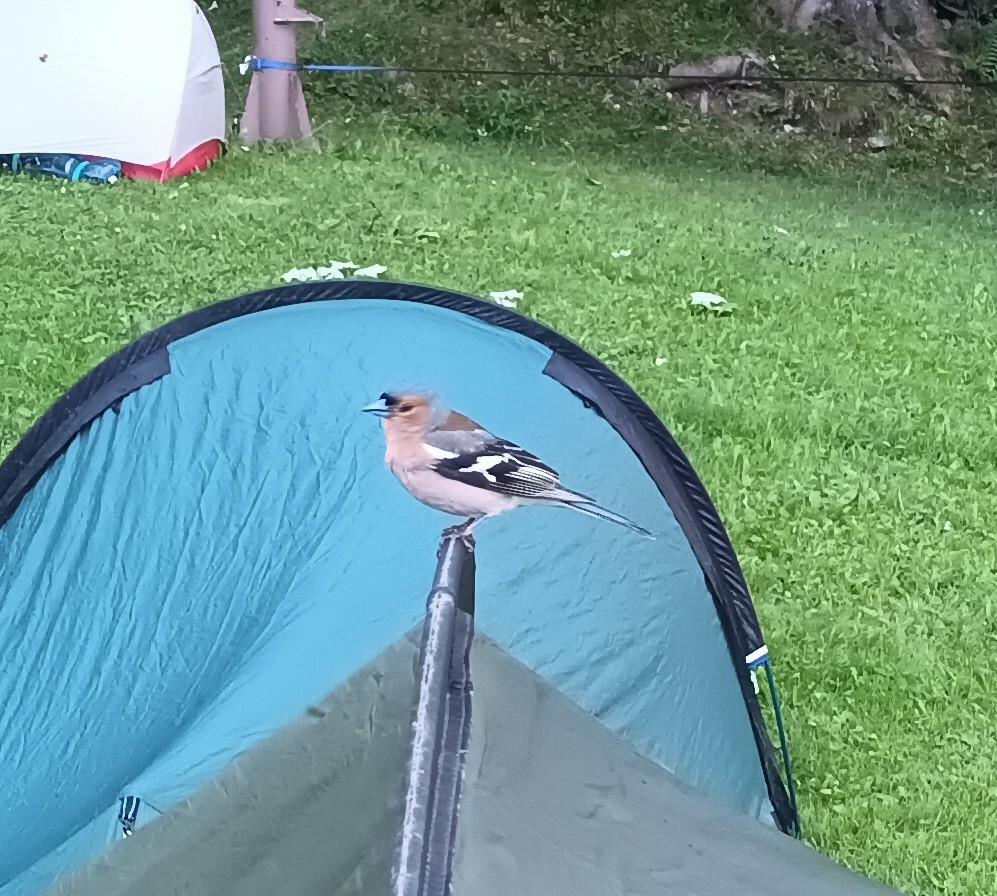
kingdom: Animalia
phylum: Chordata
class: Aves
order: Passeriformes
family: Fringillidae
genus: Fringilla
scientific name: Fringilla coelebs
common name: Common chaffinch
